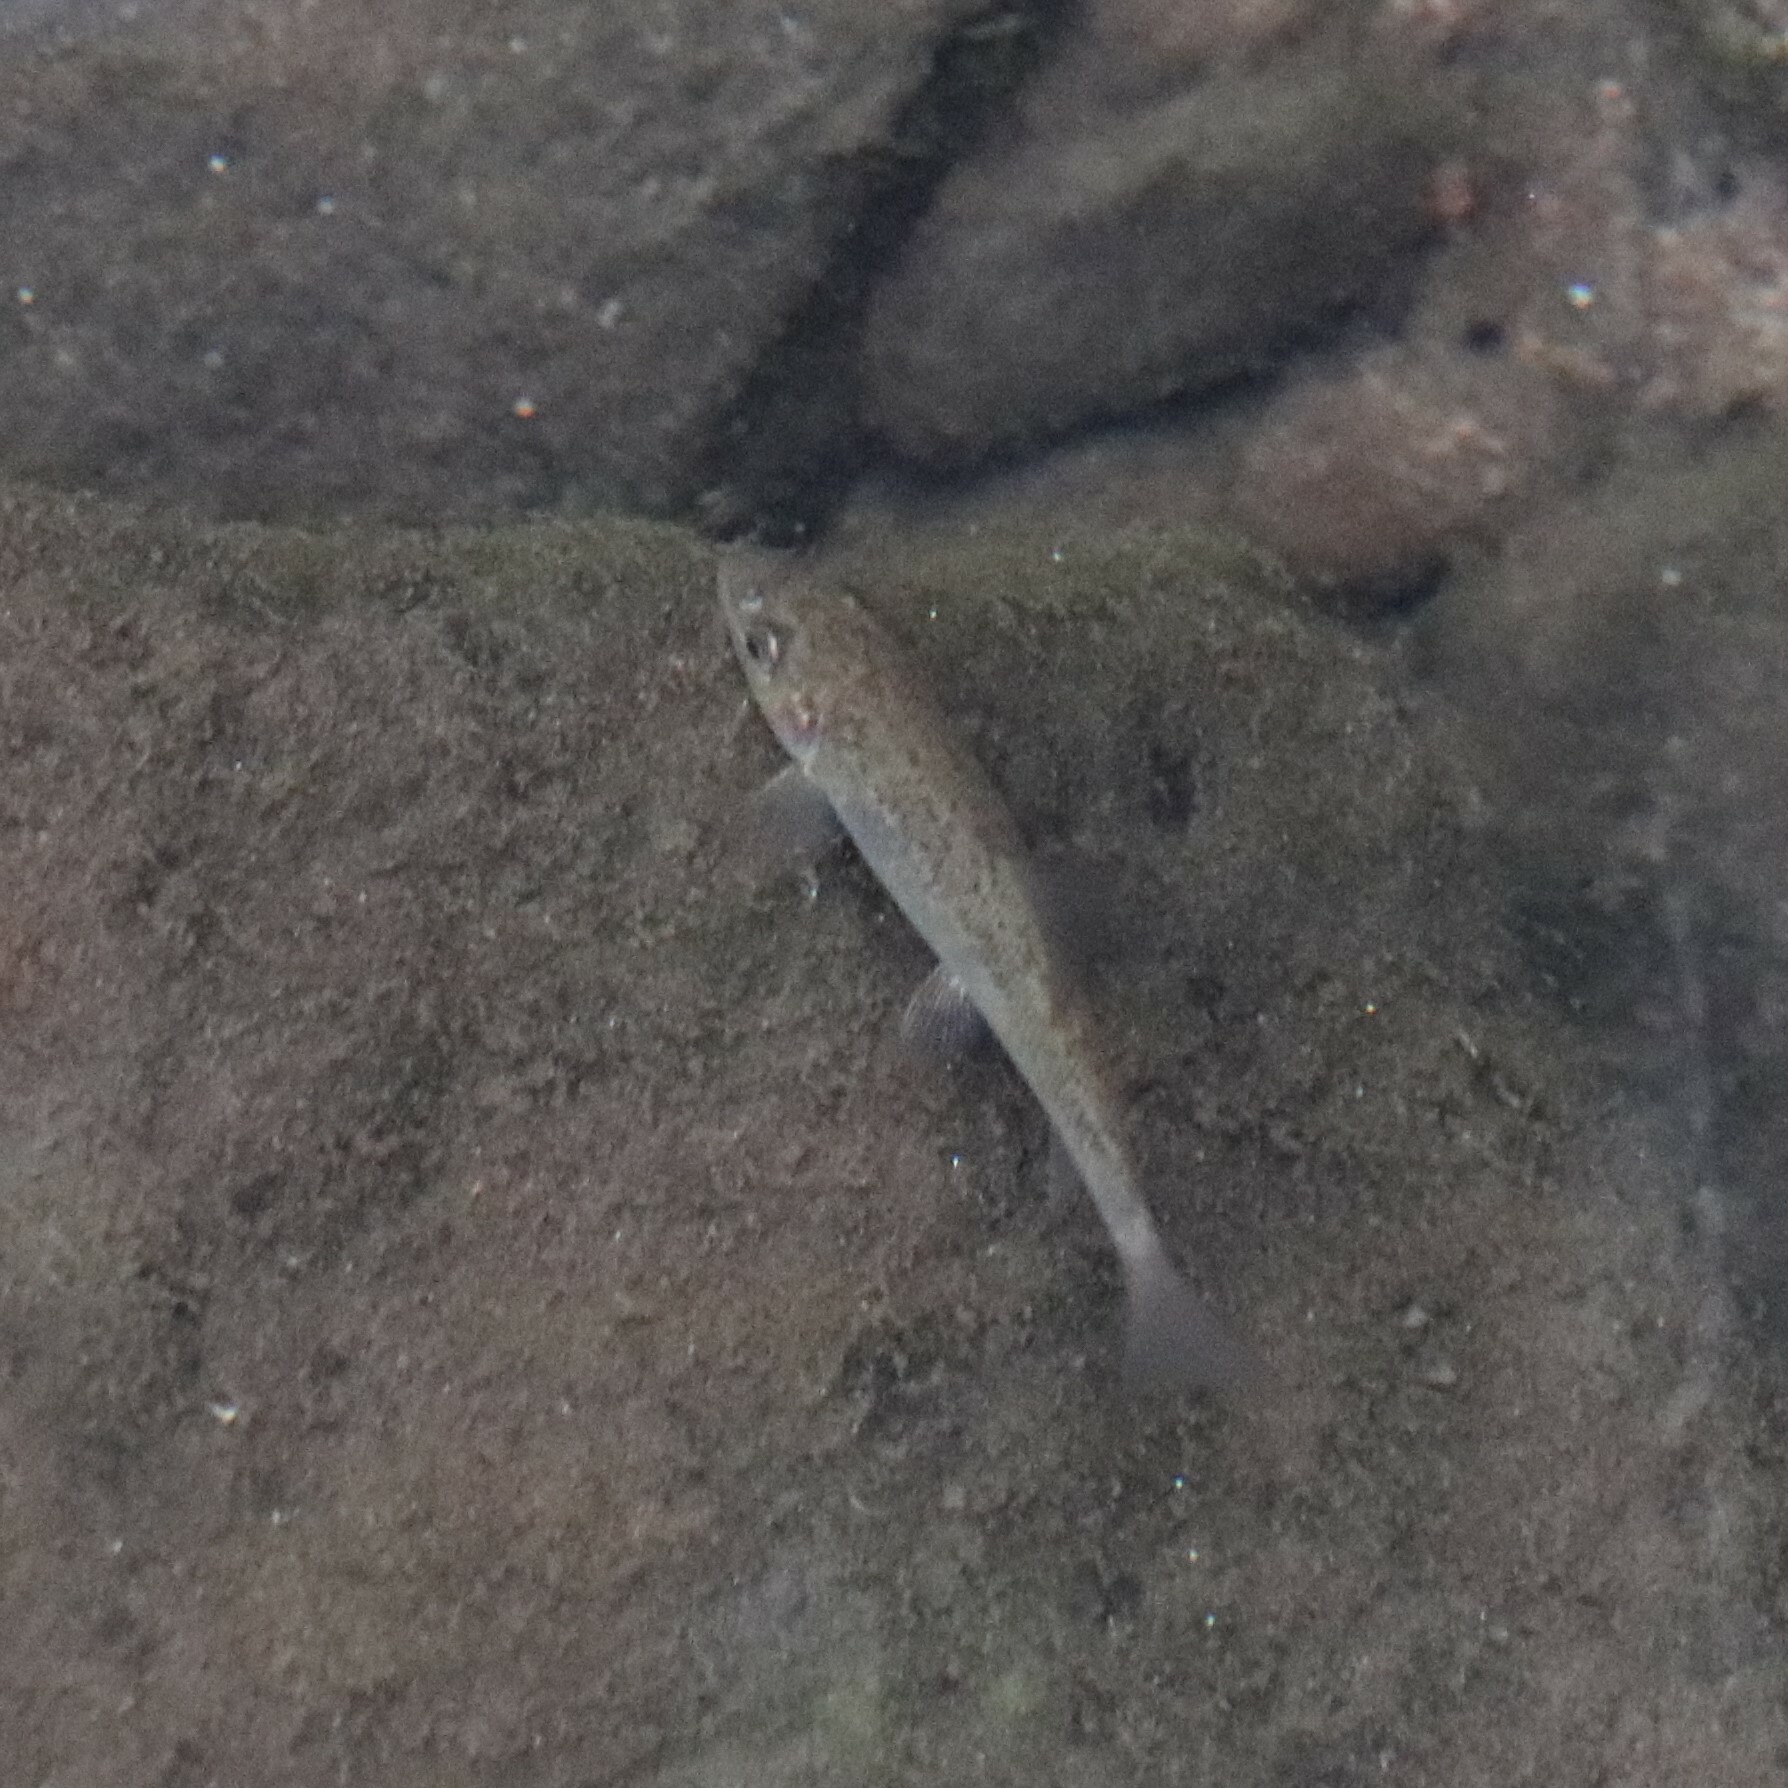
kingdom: Animalia
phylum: Chordata
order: Cypriniformes
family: Catostomidae
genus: Catostomus
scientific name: Catostomus commersonii
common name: White sucker
